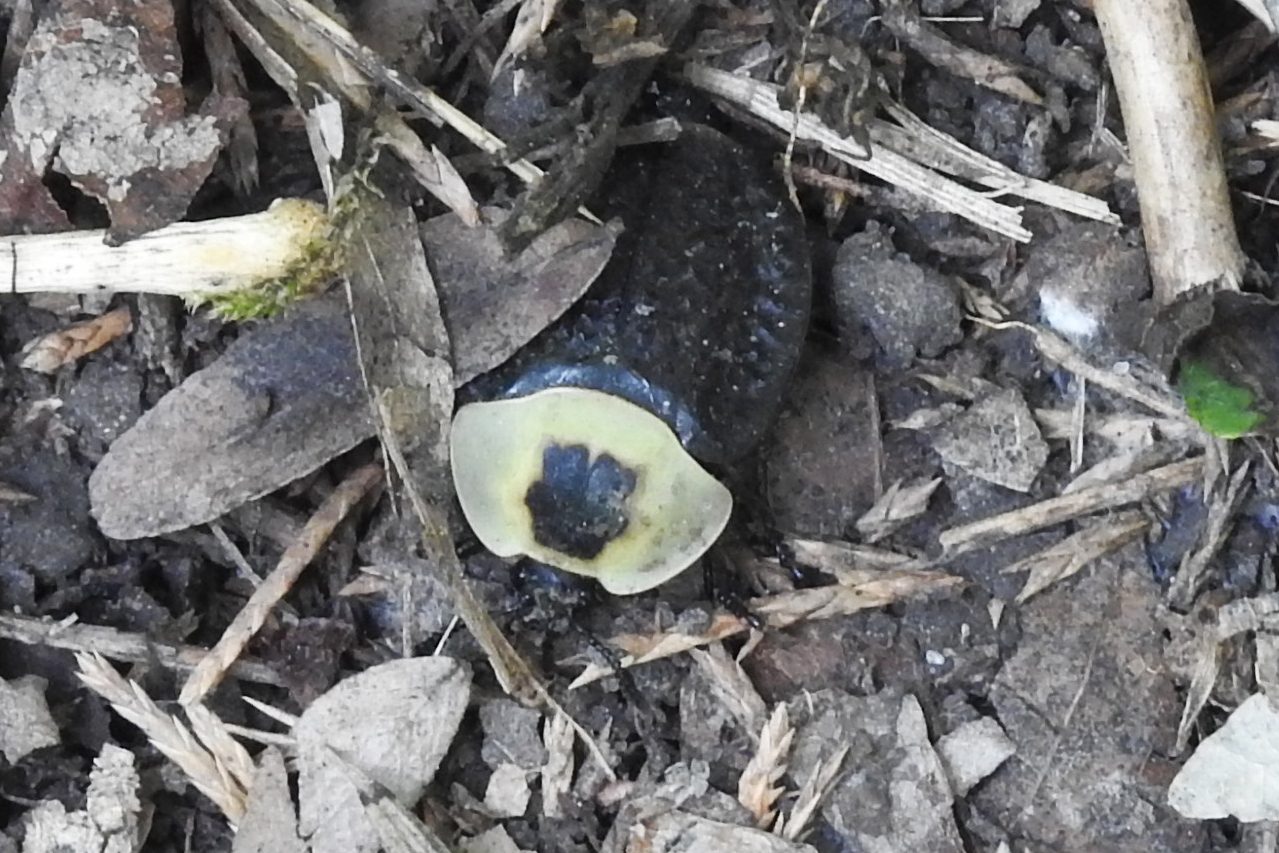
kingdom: Animalia
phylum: Arthropoda
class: Insecta
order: Coleoptera
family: Staphylinidae
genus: Necrophila
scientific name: Necrophila americana
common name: American carrion beetle
